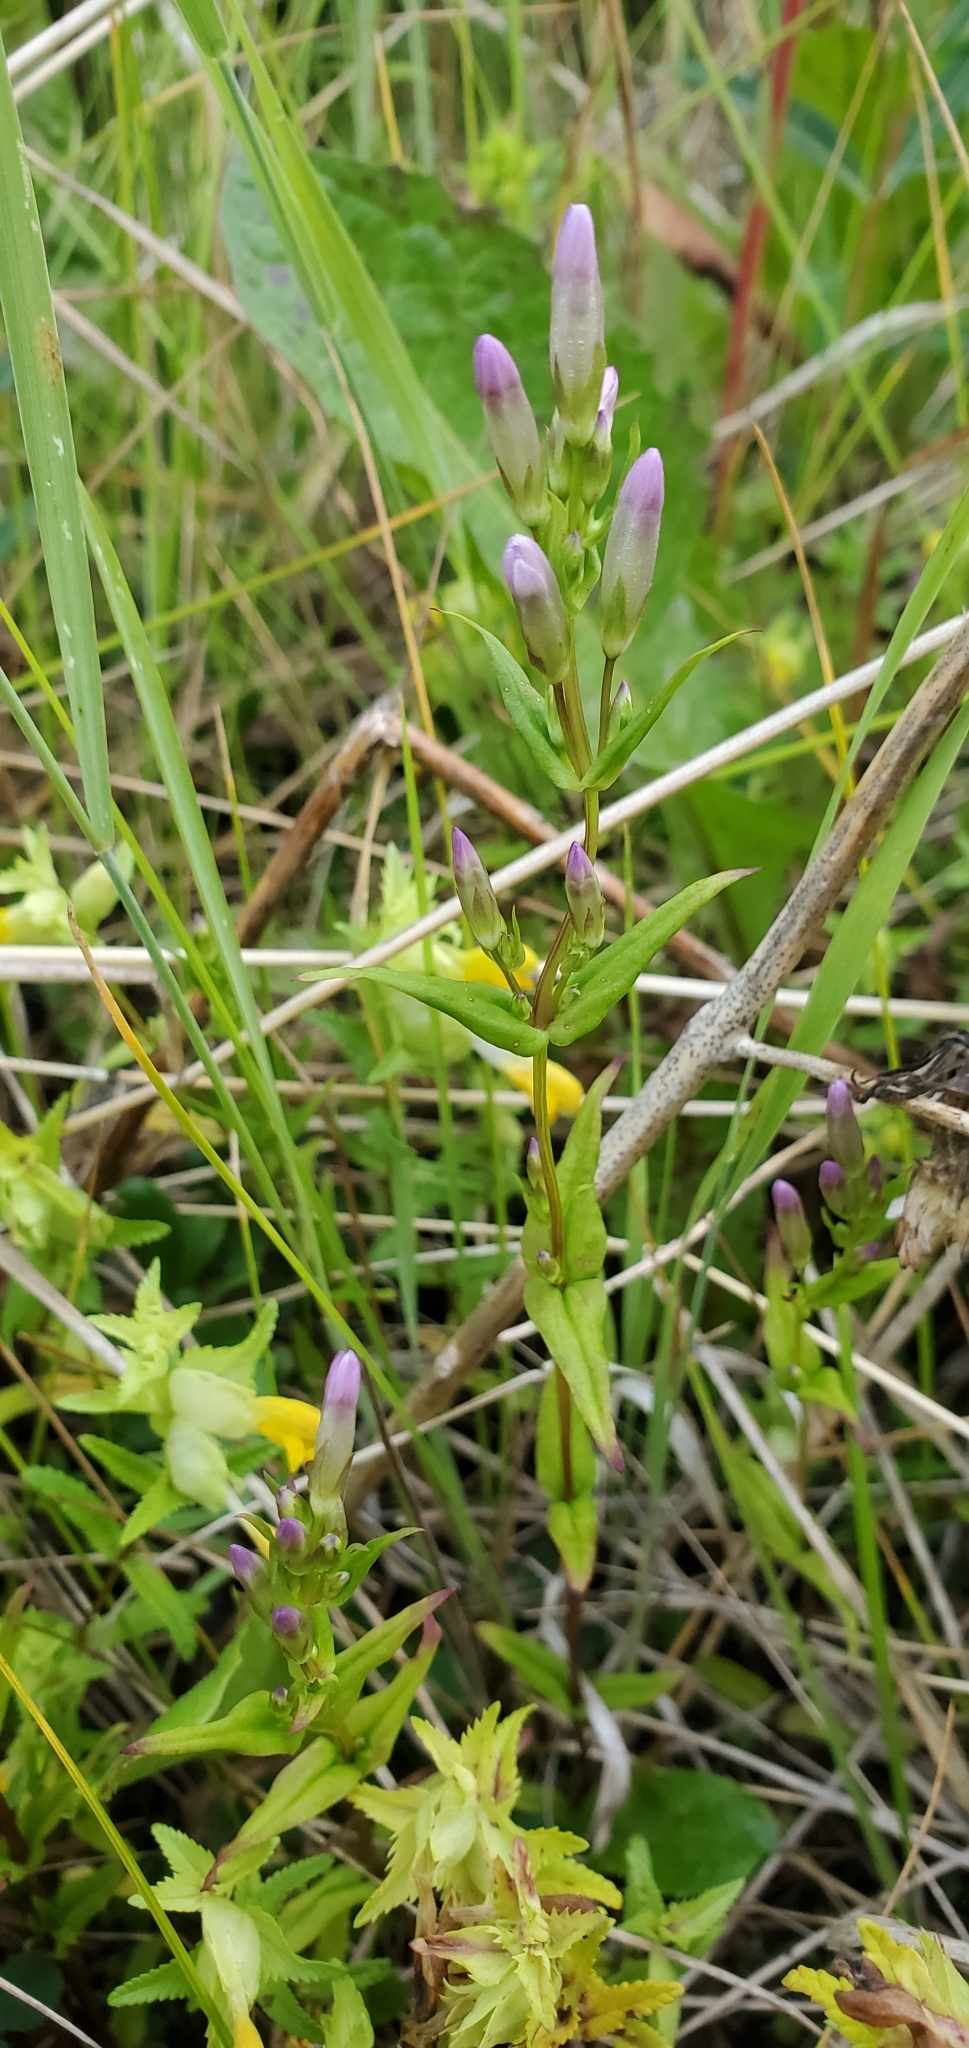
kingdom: Plantae
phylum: Tracheophyta
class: Magnoliopsida
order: Gentianales
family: Gentianaceae
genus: Gentianella
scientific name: Gentianella amarella
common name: Autumn gentian
